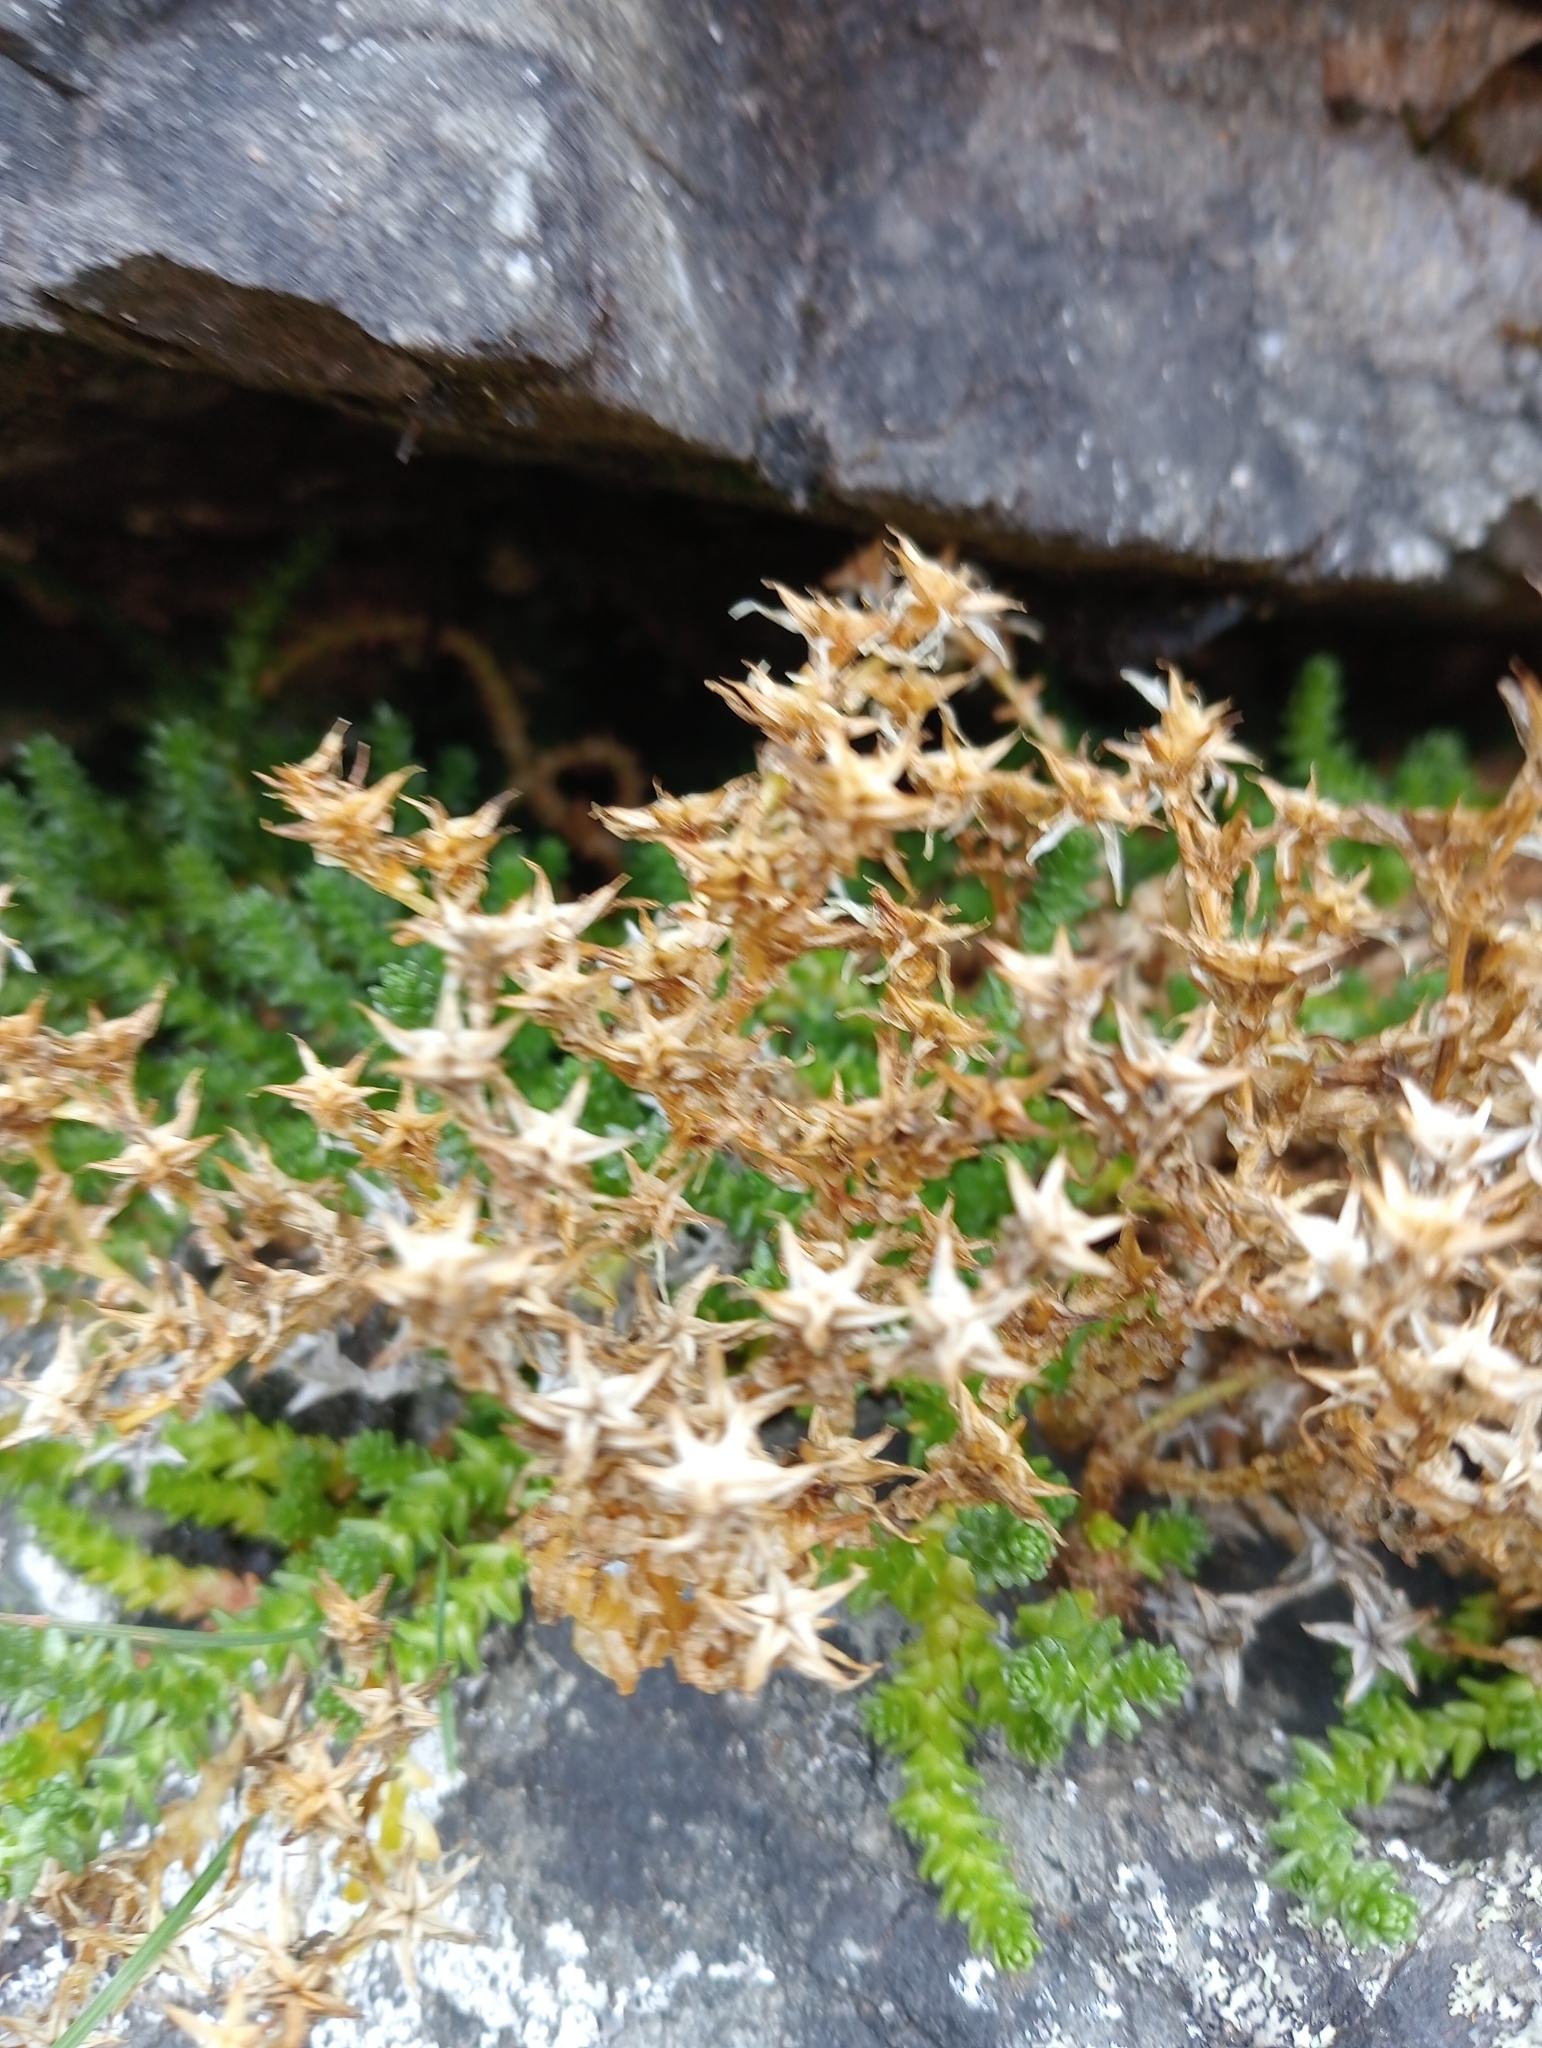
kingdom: Plantae
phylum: Tracheophyta
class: Magnoliopsida
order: Saxifragales
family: Crassulaceae
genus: Sedum
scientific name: Sedum acre
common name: Biting stonecrop
